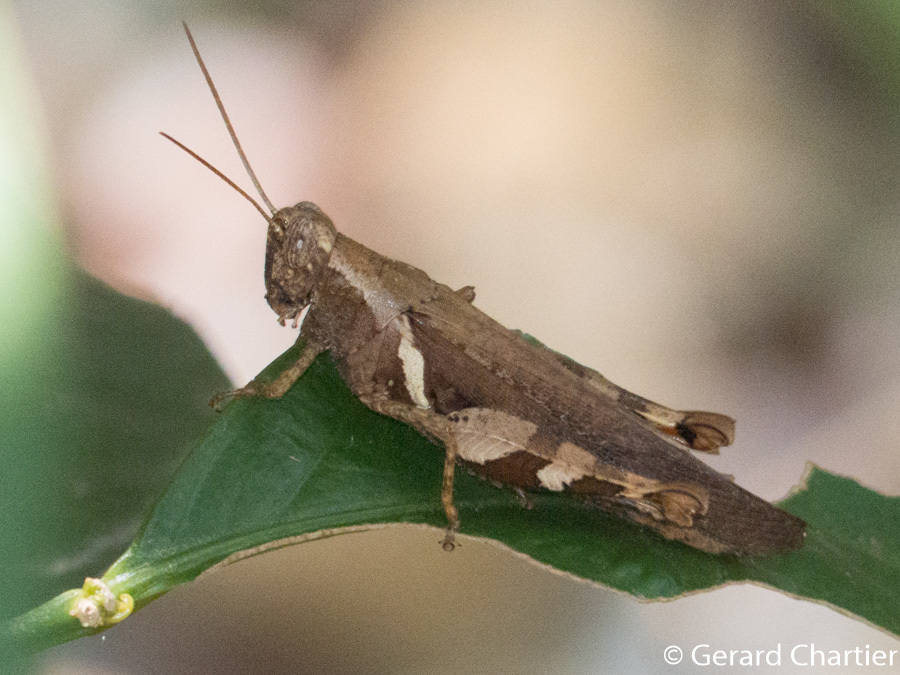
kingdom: Animalia
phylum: Arthropoda
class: Insecta
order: Orthoptera
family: Acrididae
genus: Xenocatantops
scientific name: Xenocatantops humile
